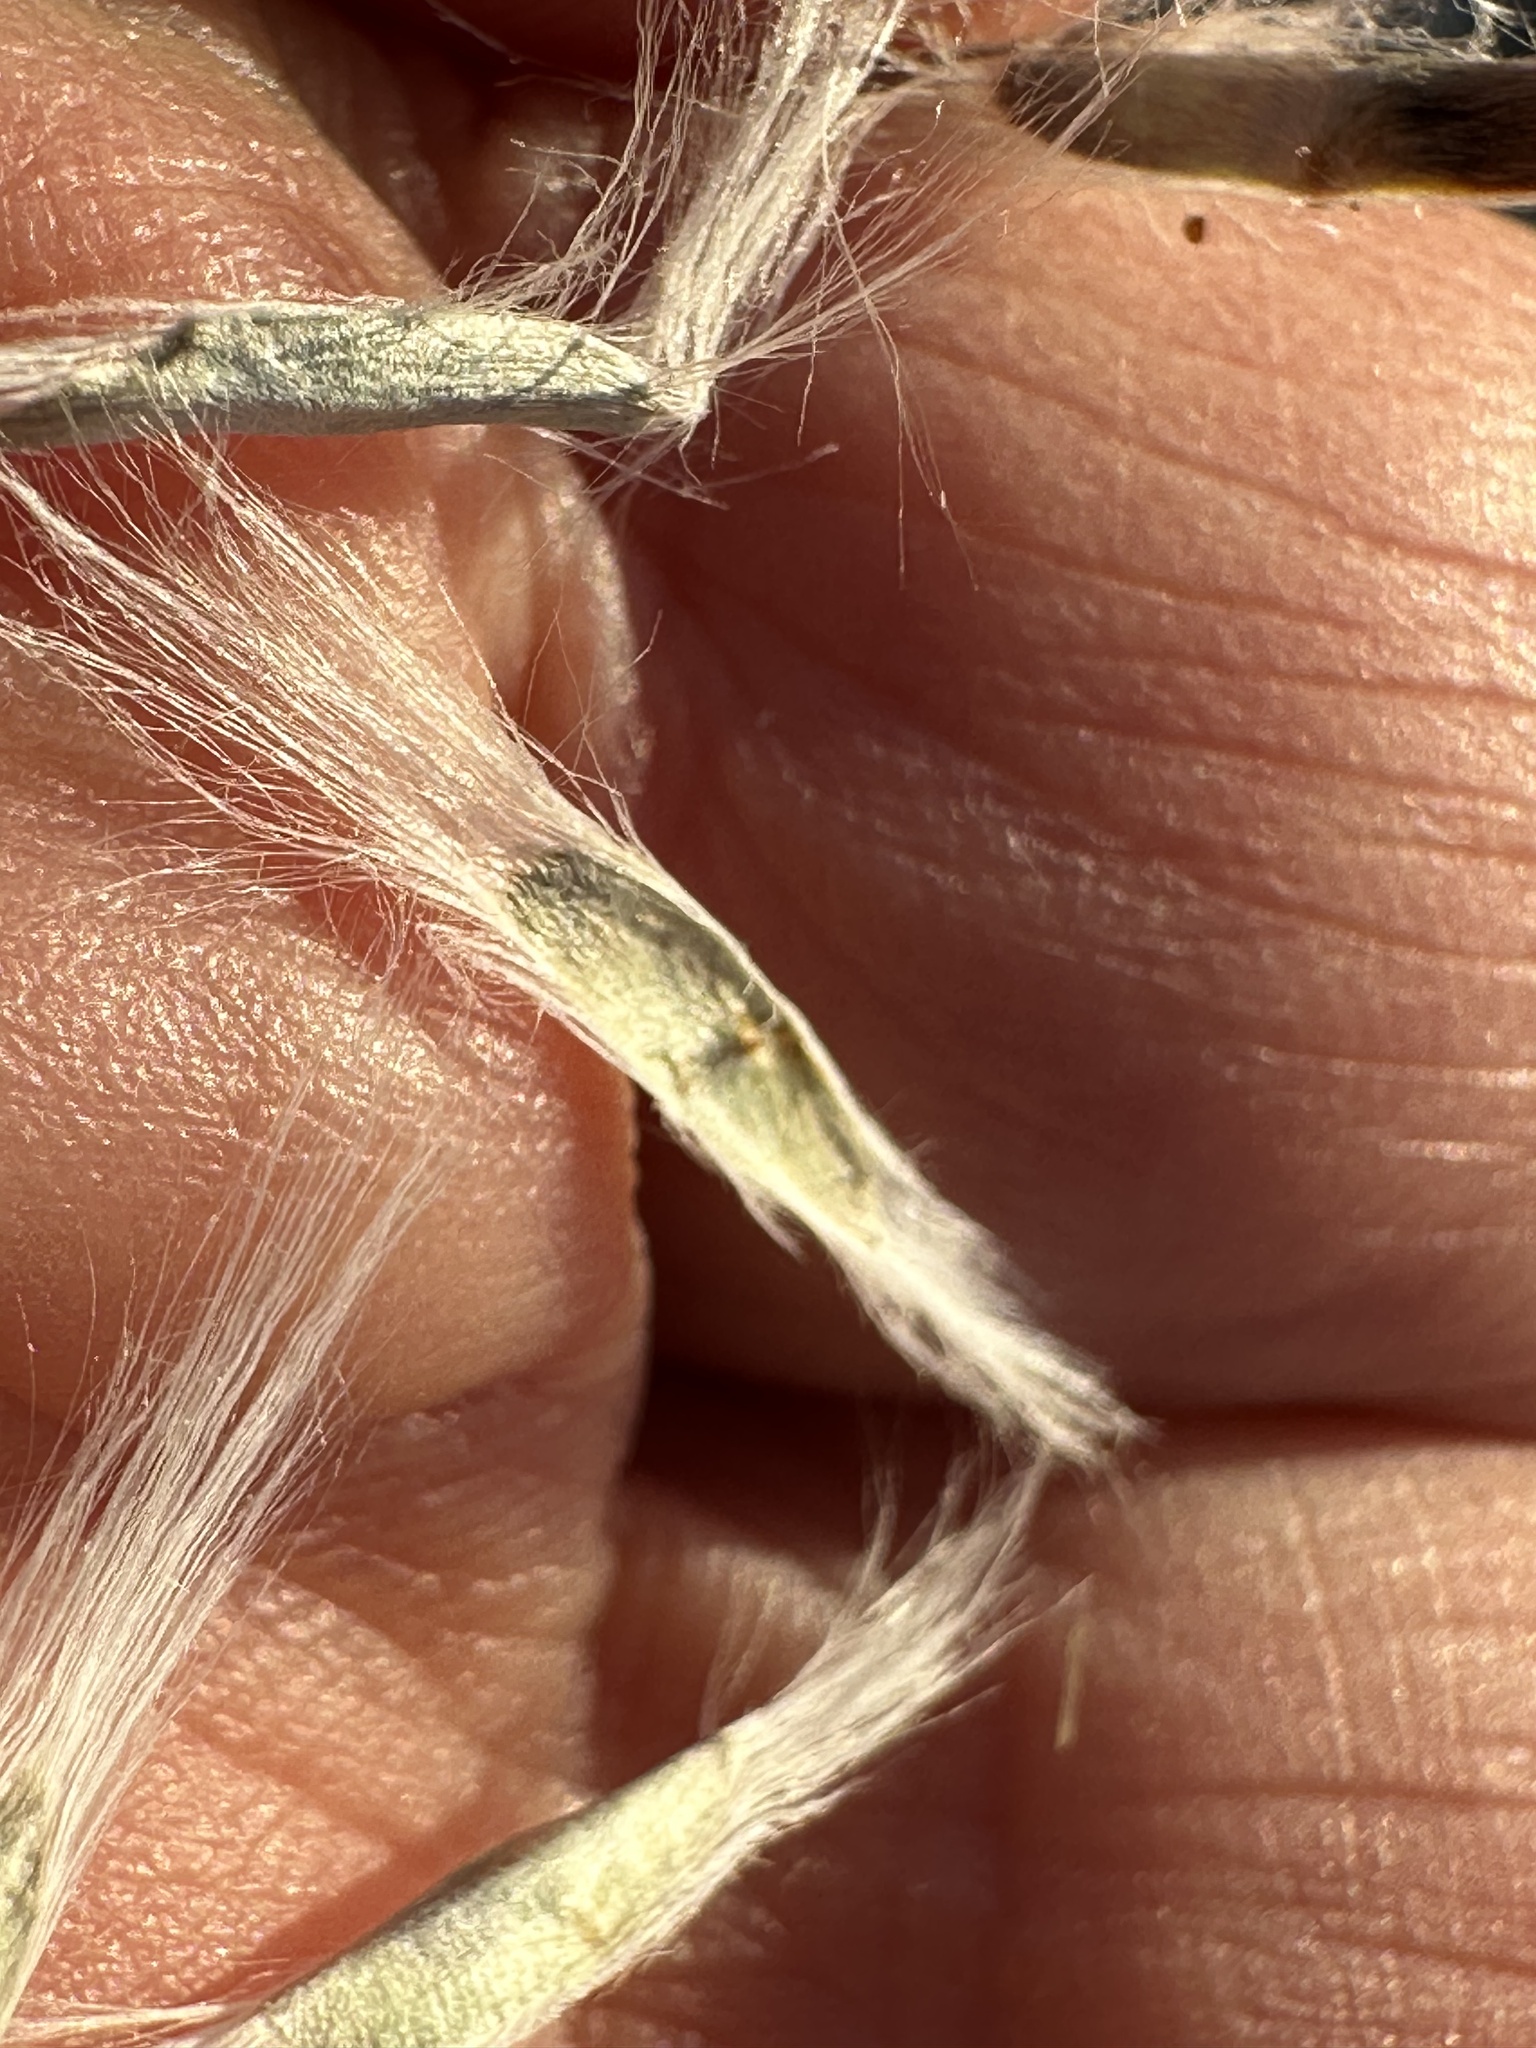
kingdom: Plantae
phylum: Tracheophyta
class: Magnoliopsida
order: Lamiales
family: Bignoniaceae
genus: Chilopsis
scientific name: Chilopsis linearis
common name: Desert-willow
